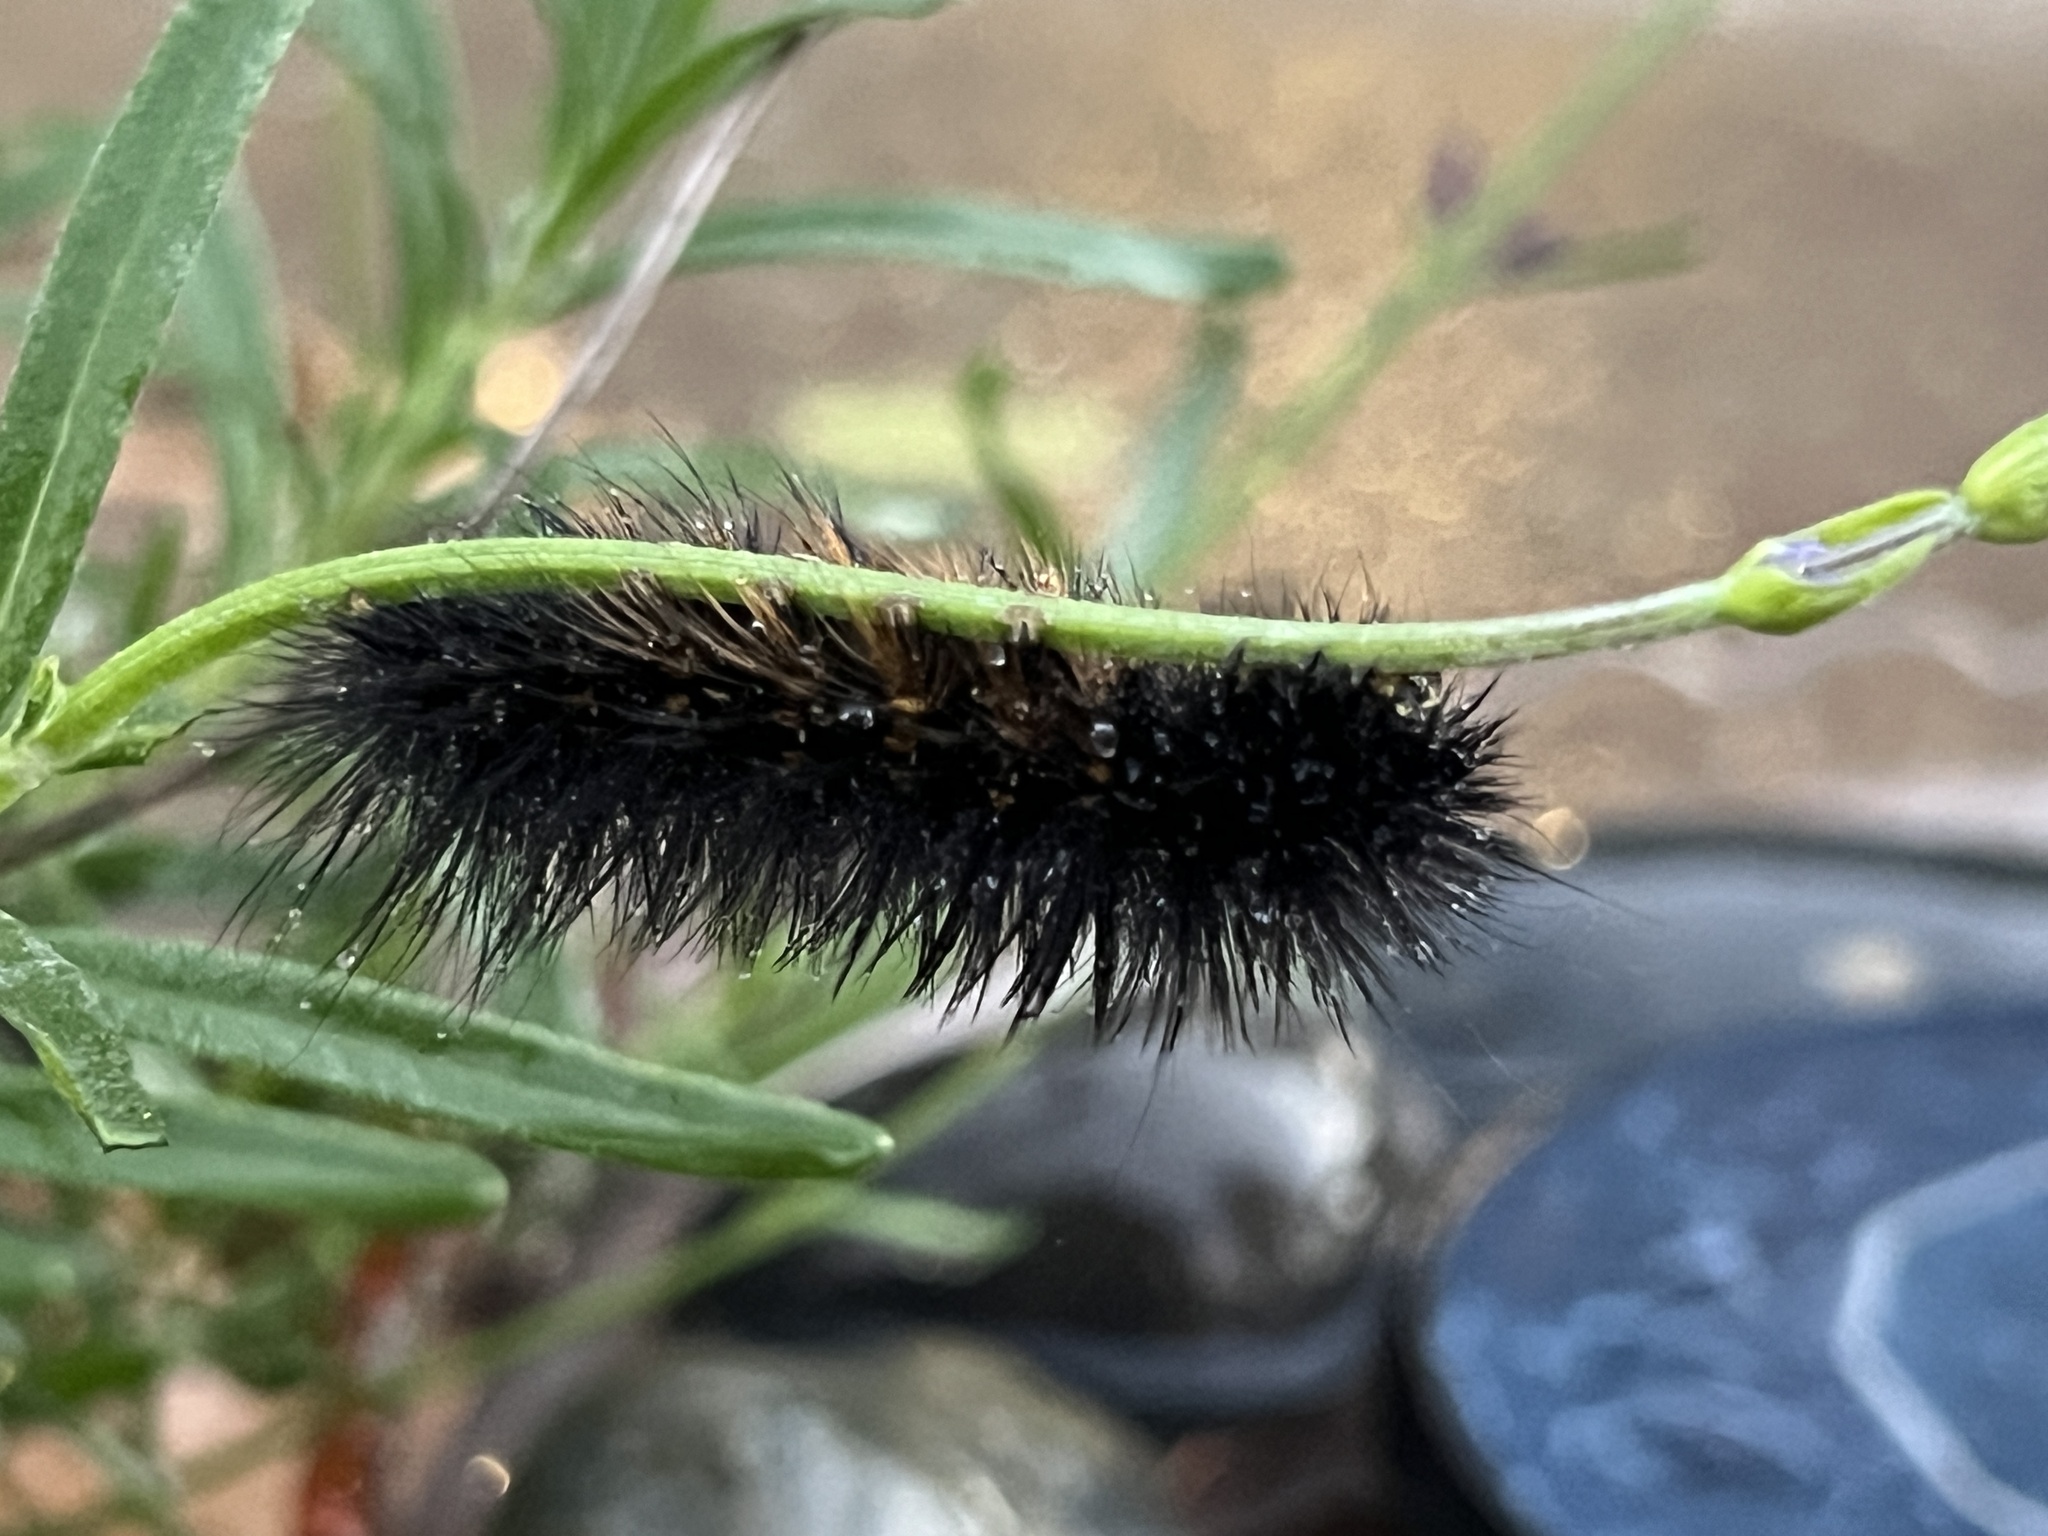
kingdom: Animalia
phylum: Arthropoda
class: Insecta
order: Lepidoptera
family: Erebidae
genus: Estigmene
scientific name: Estigmene acrea
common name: Salt marsh moth
